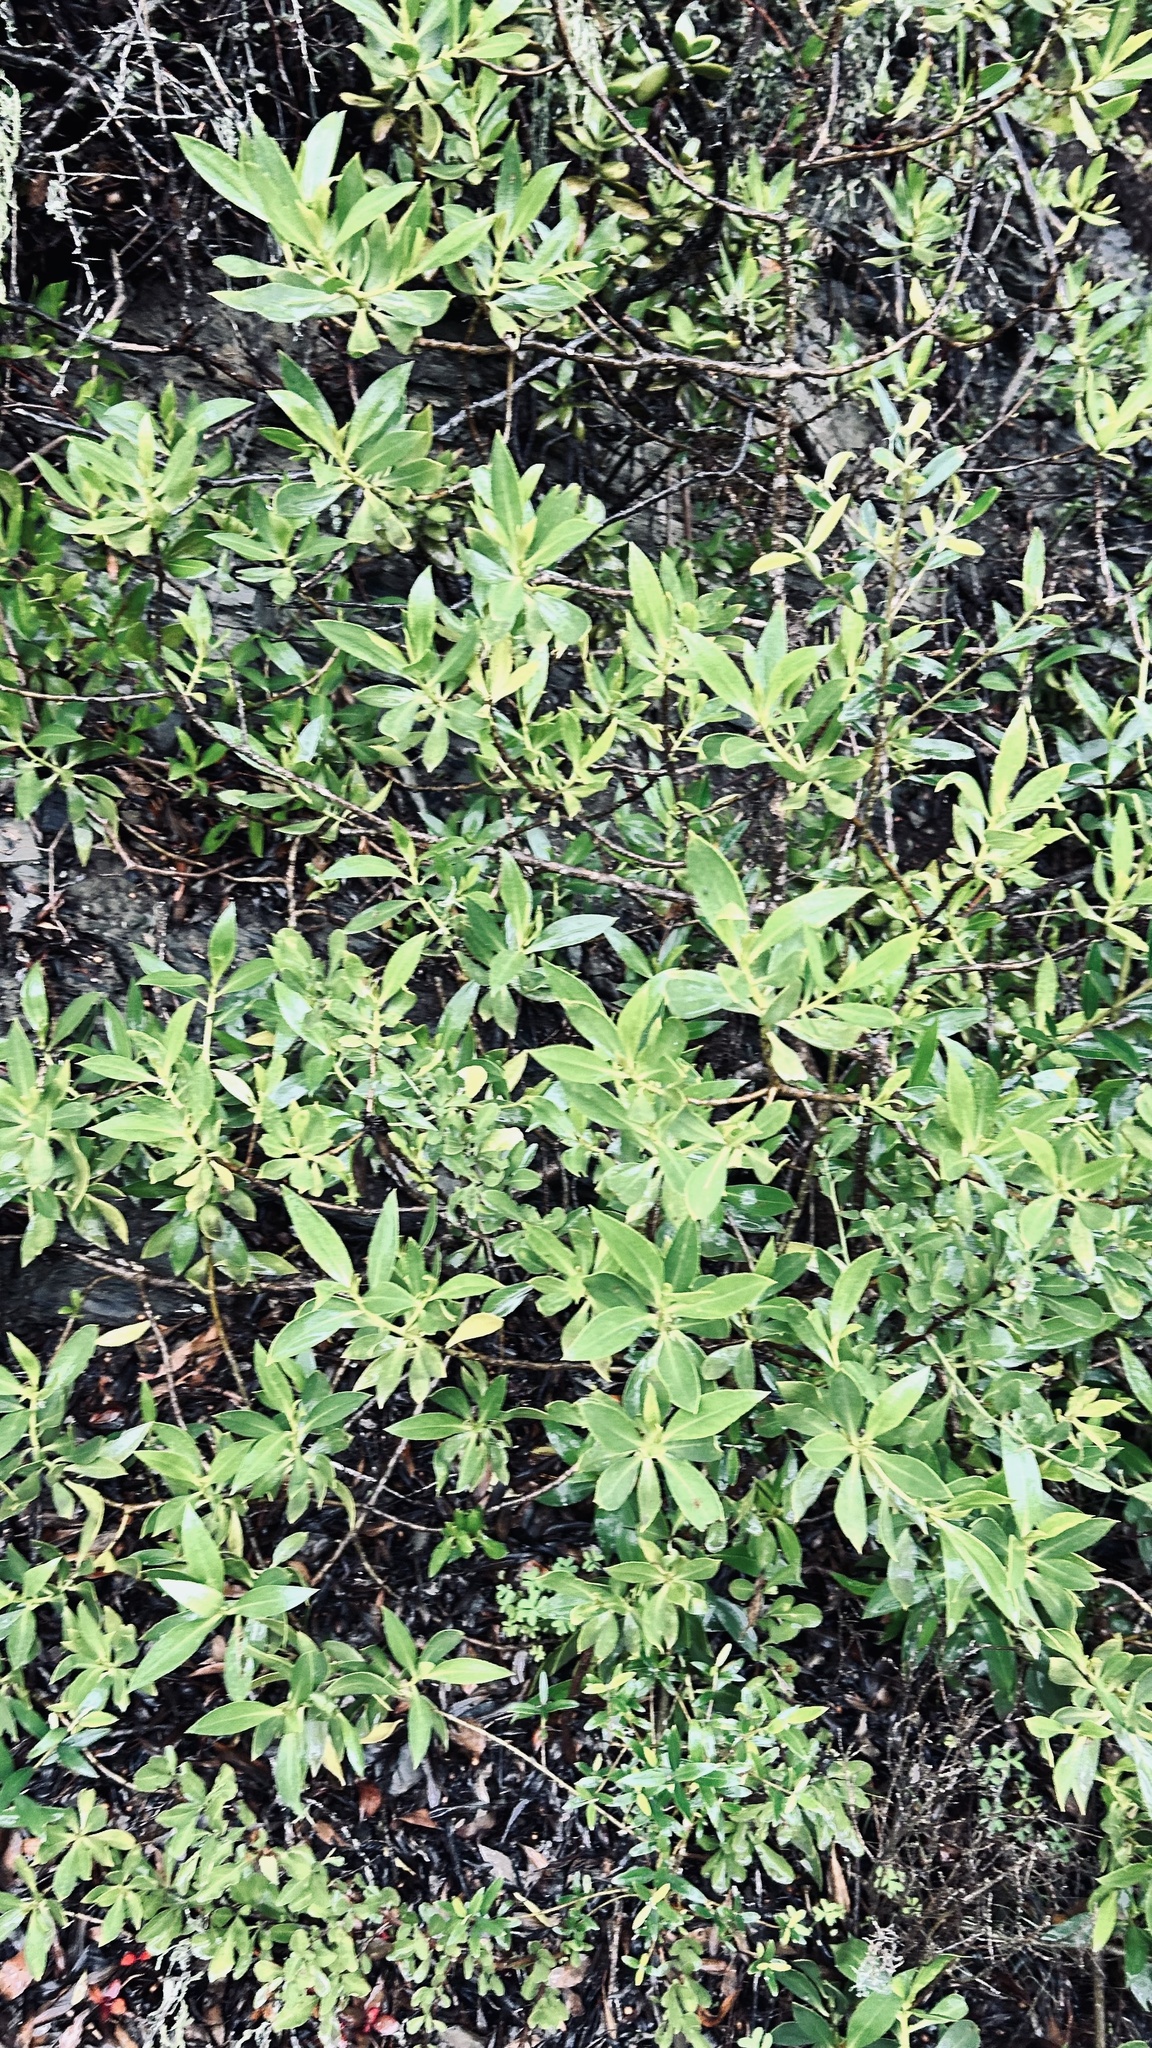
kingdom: Plantae
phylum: Tracheophyta
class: Magnoliopsida
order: Lamiales
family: Scrophulariaceae
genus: Myoporum
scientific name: Myoporum insulare
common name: Common boobialla
